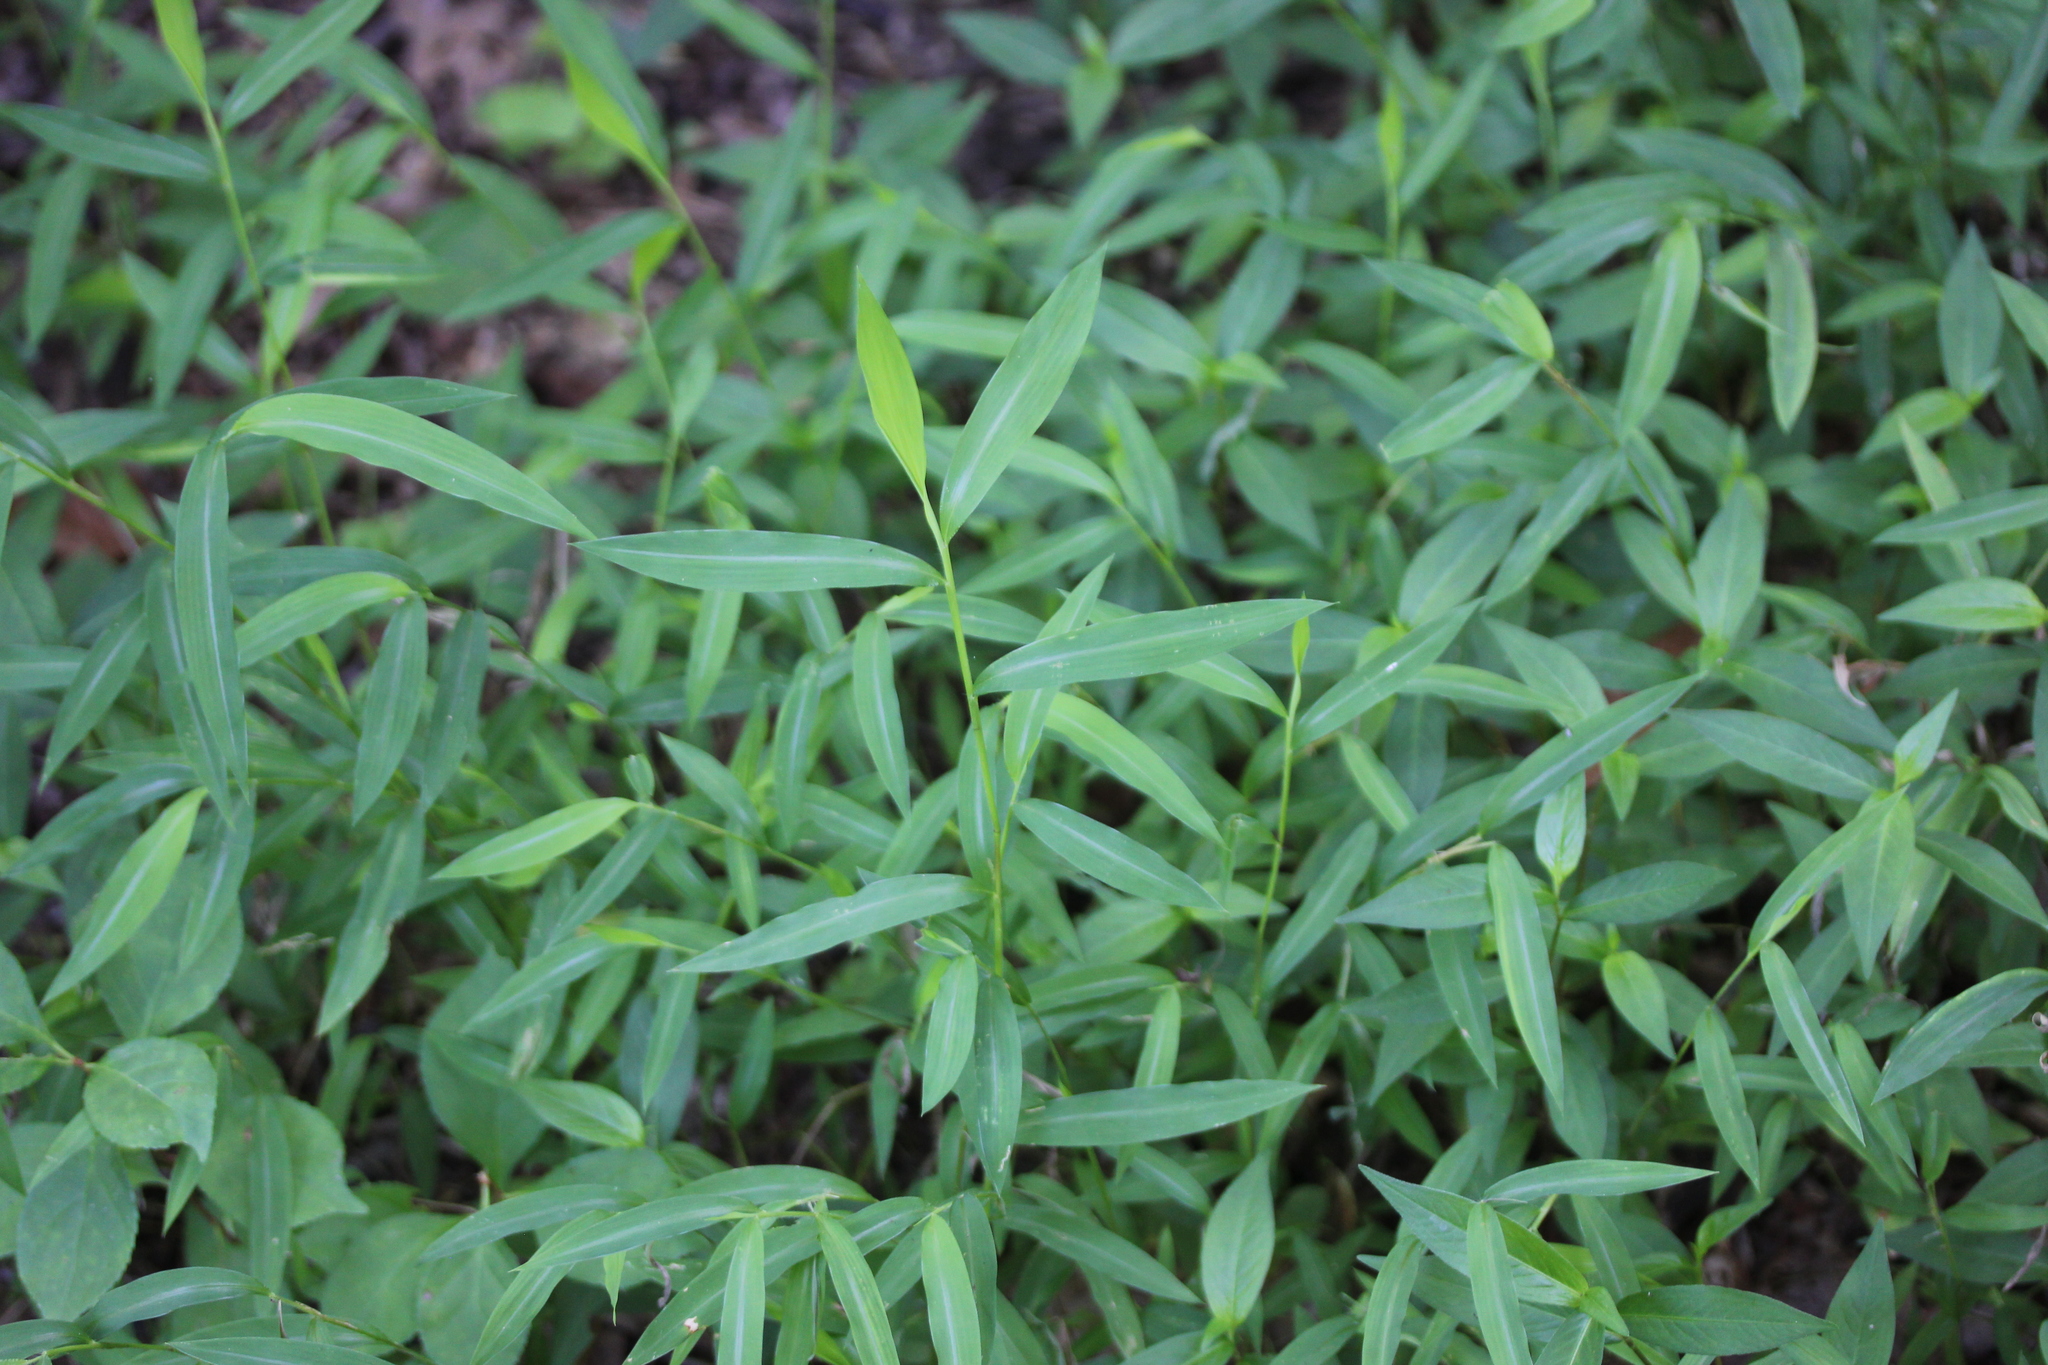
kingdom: Plantae
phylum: Tracheophyta
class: Liliopsida
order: Poales
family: Poaceae
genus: Microstegium
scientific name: Microstegium vimineum
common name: Japanese stiltgrass
